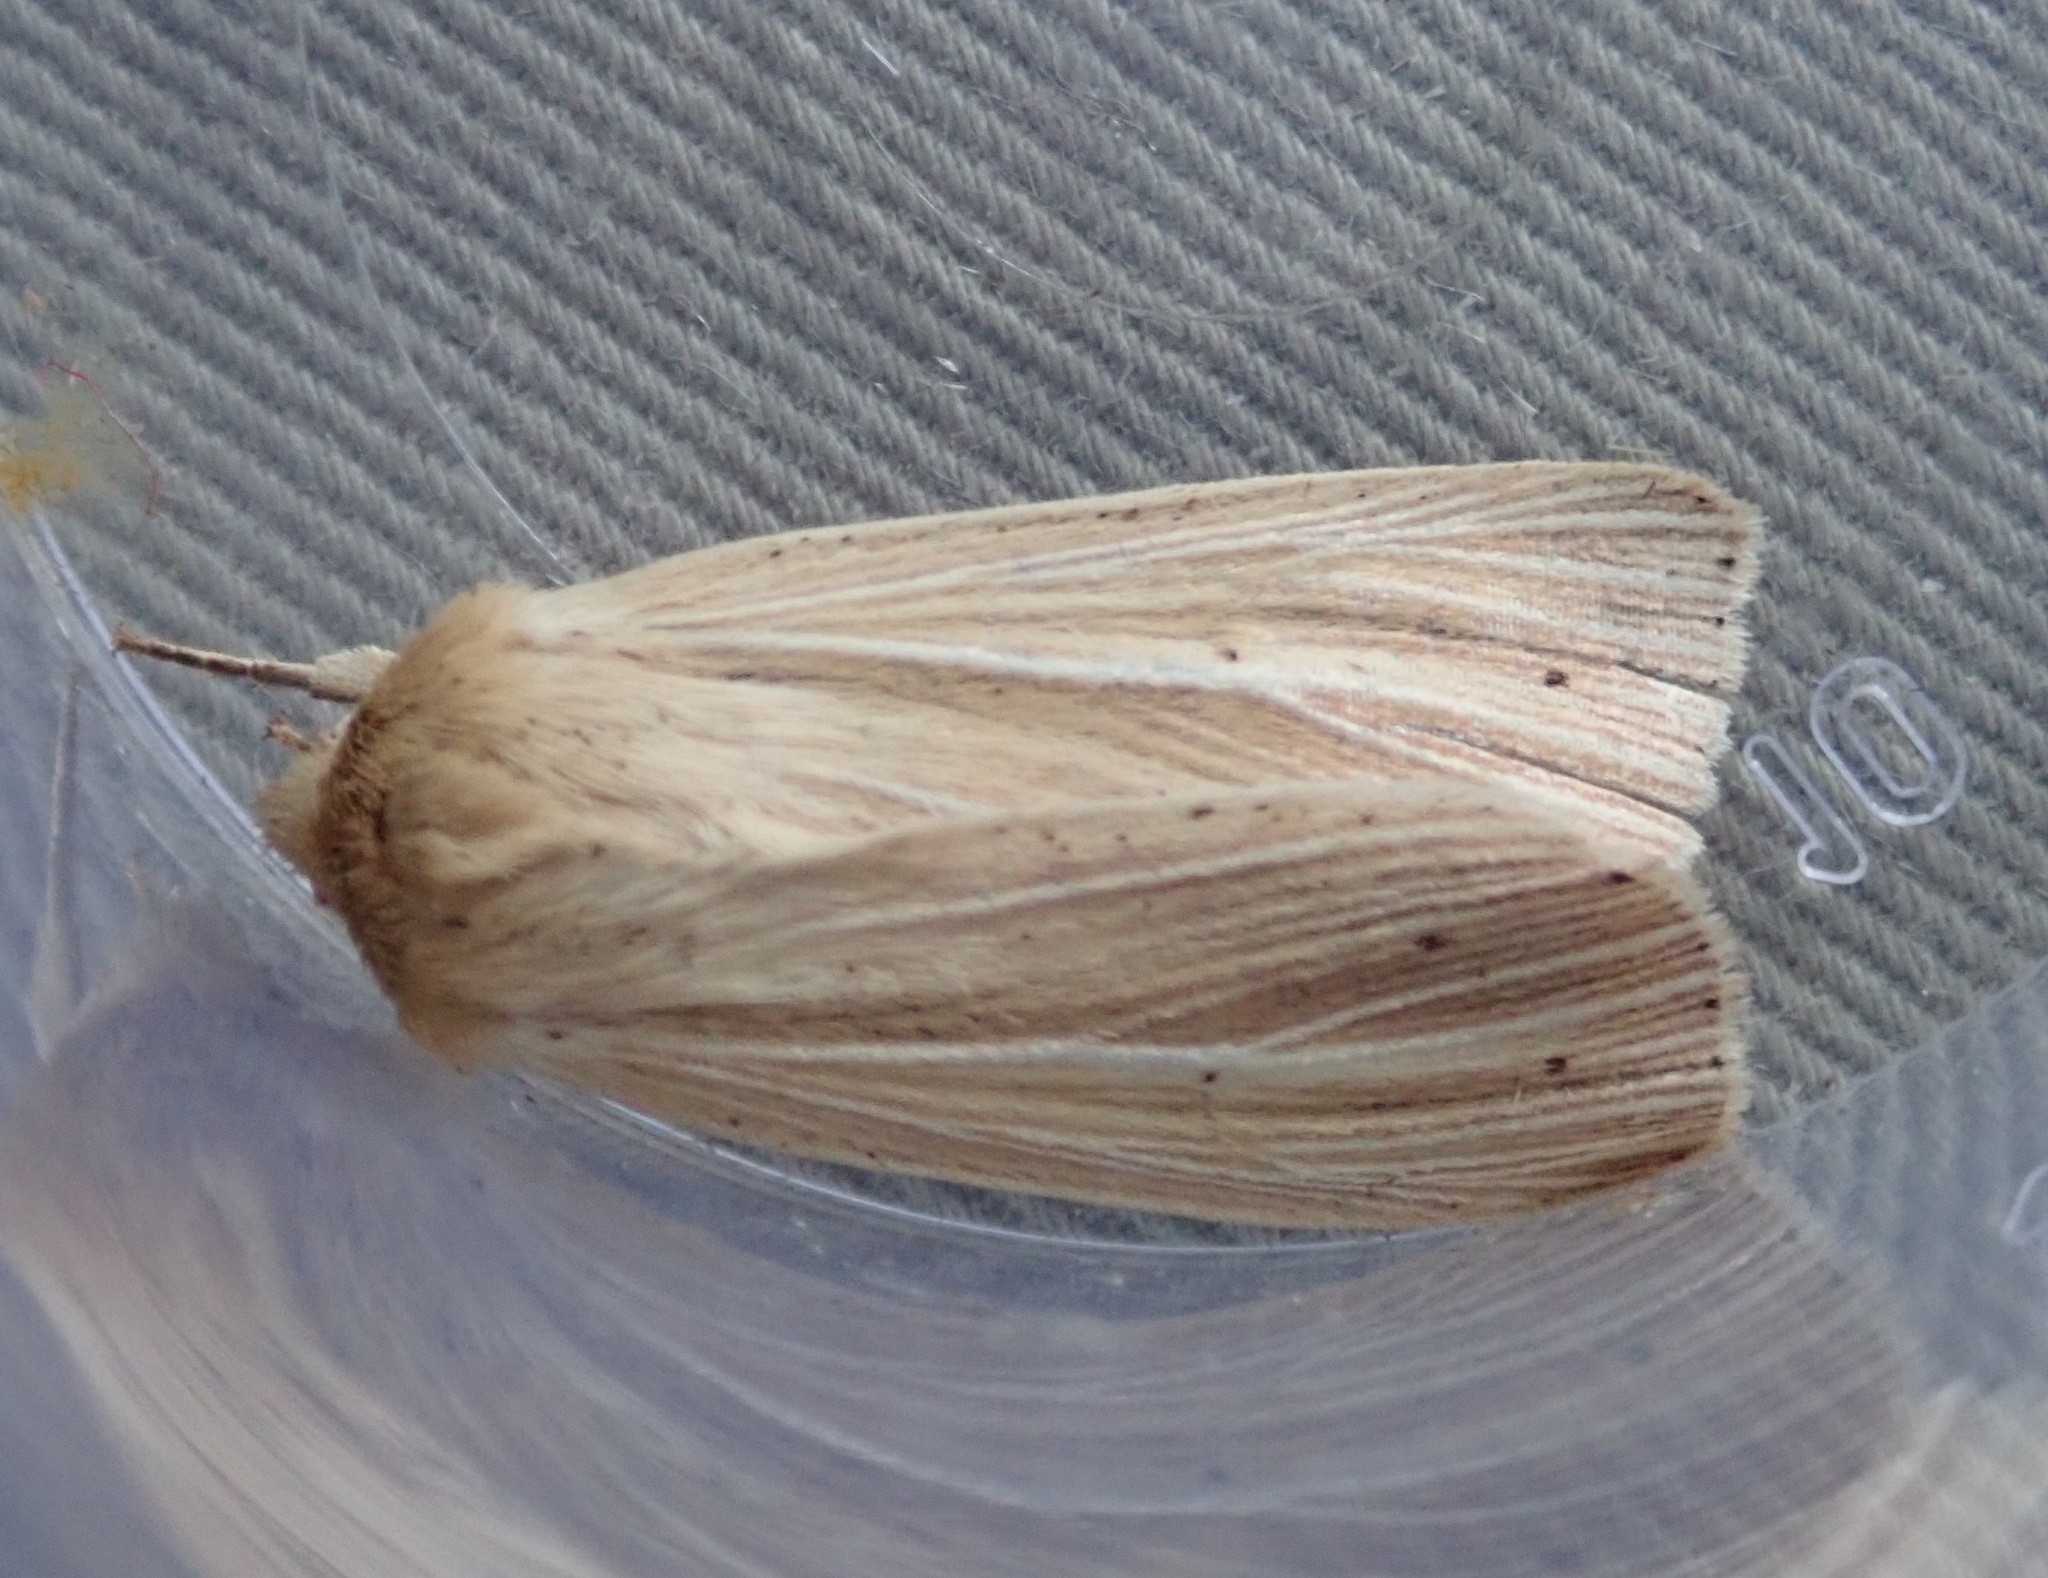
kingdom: Animalia
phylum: Arthropoda
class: Insecta
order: Lepidoptera
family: Noctuidae
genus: Mythimna
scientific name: Mythimna pallens
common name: Common wainscot
